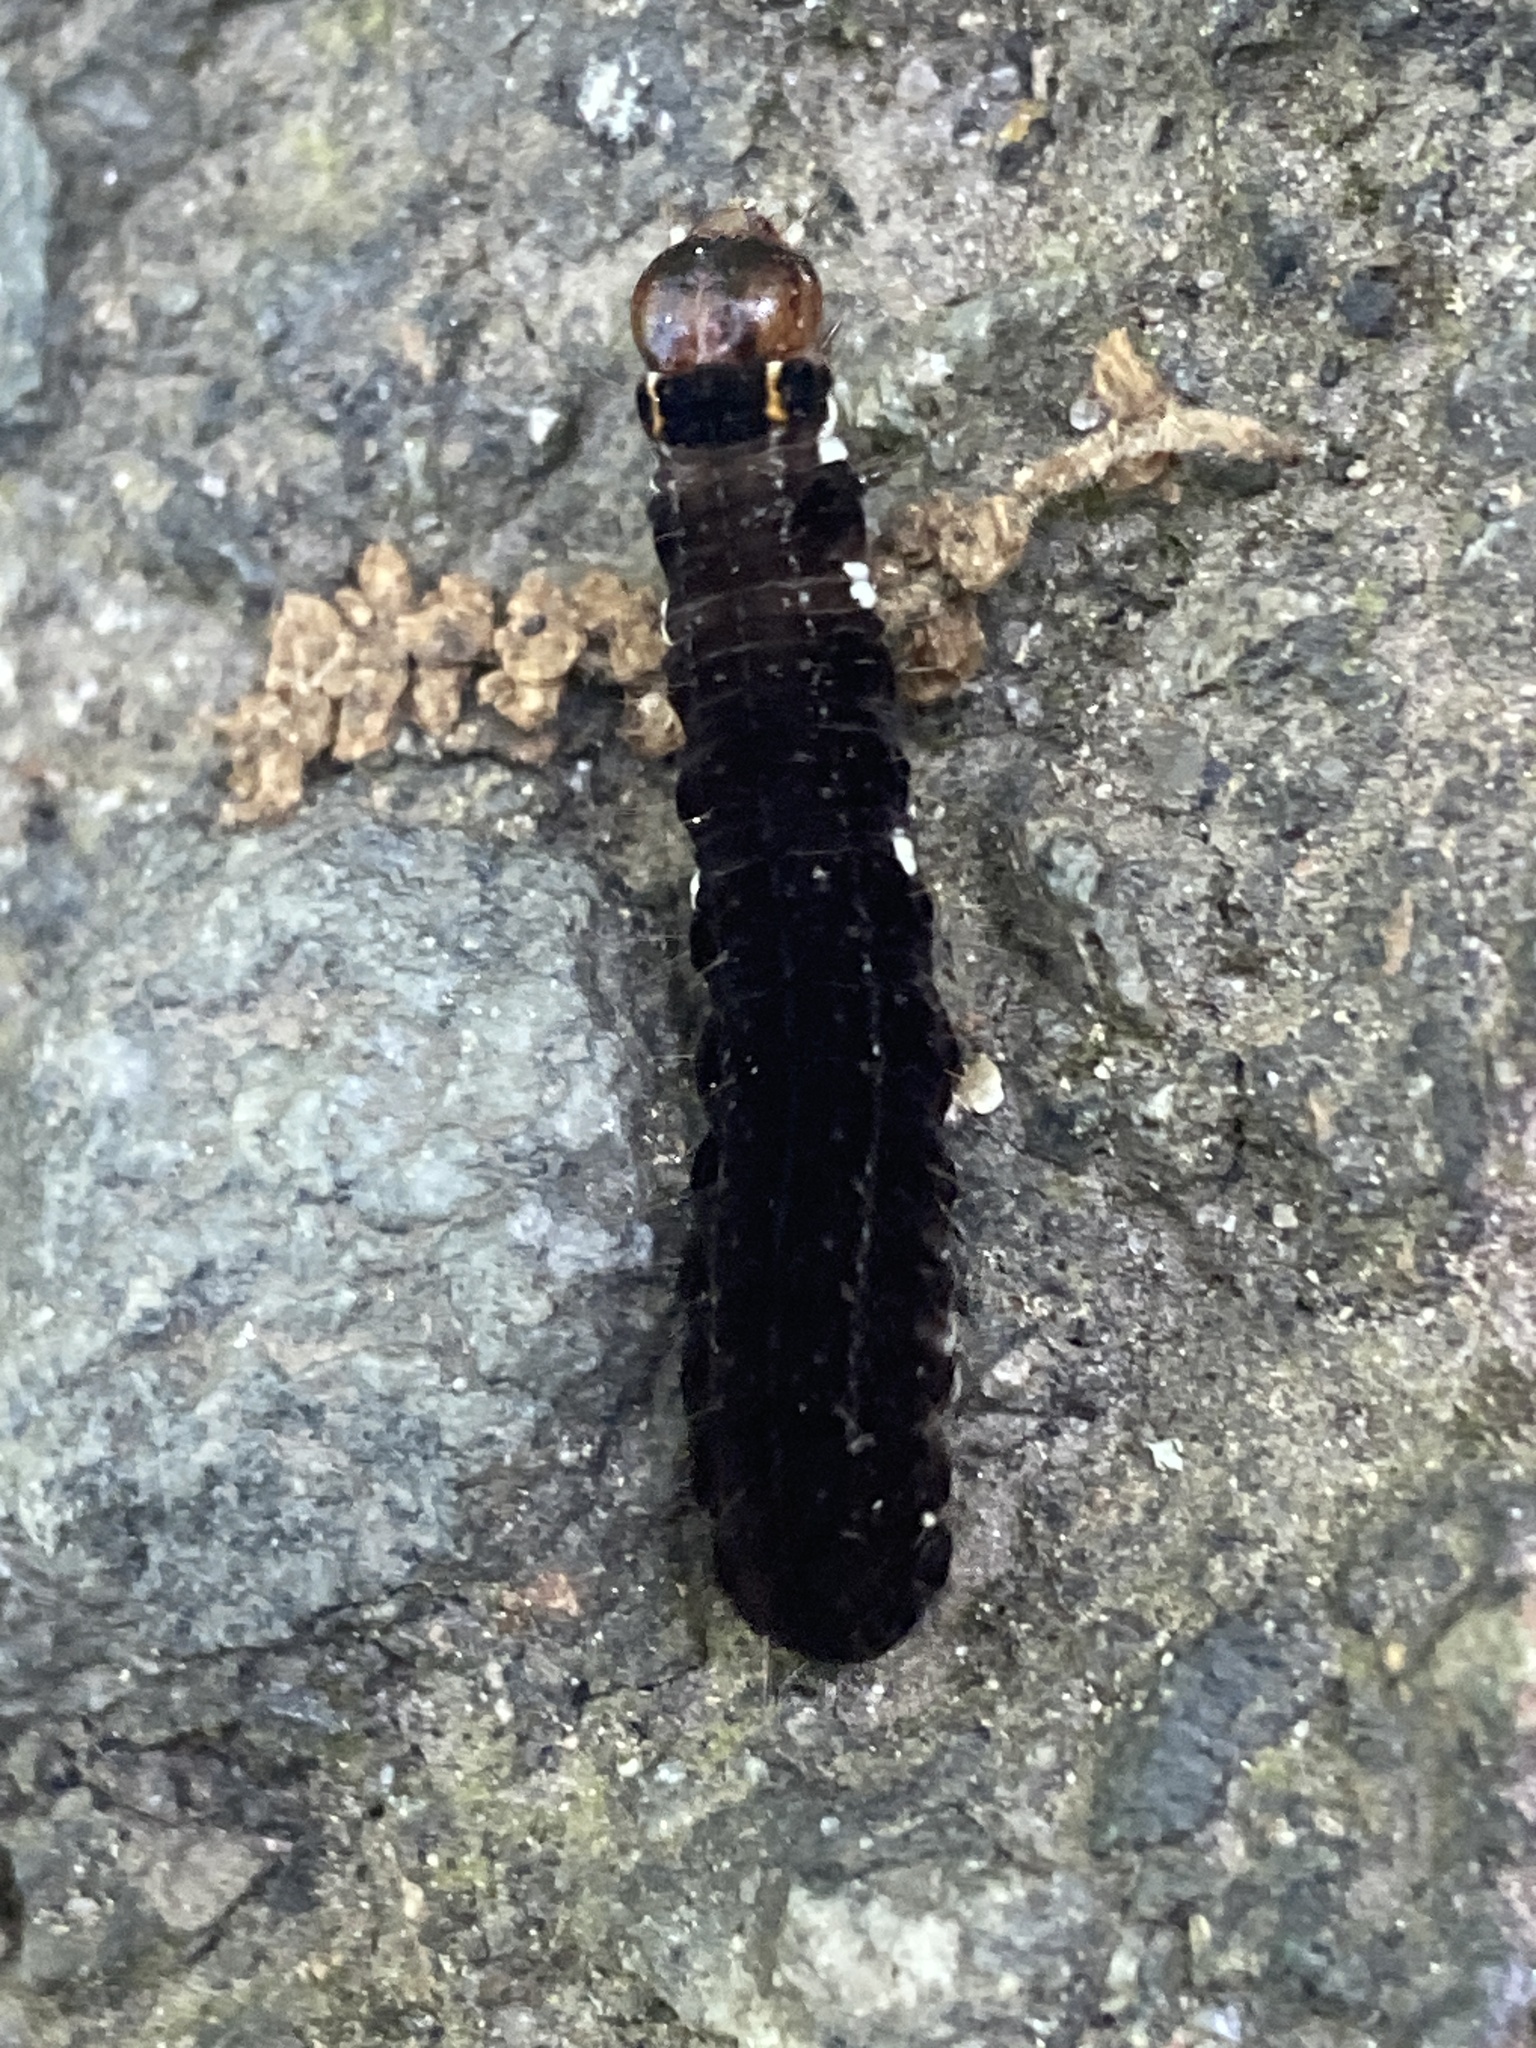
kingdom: Animalia
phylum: Arthropoda
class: Insecta
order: Lepidoptera
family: Noctuidae
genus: Eupsilia
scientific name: Eupsilia transversa
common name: Satellite
